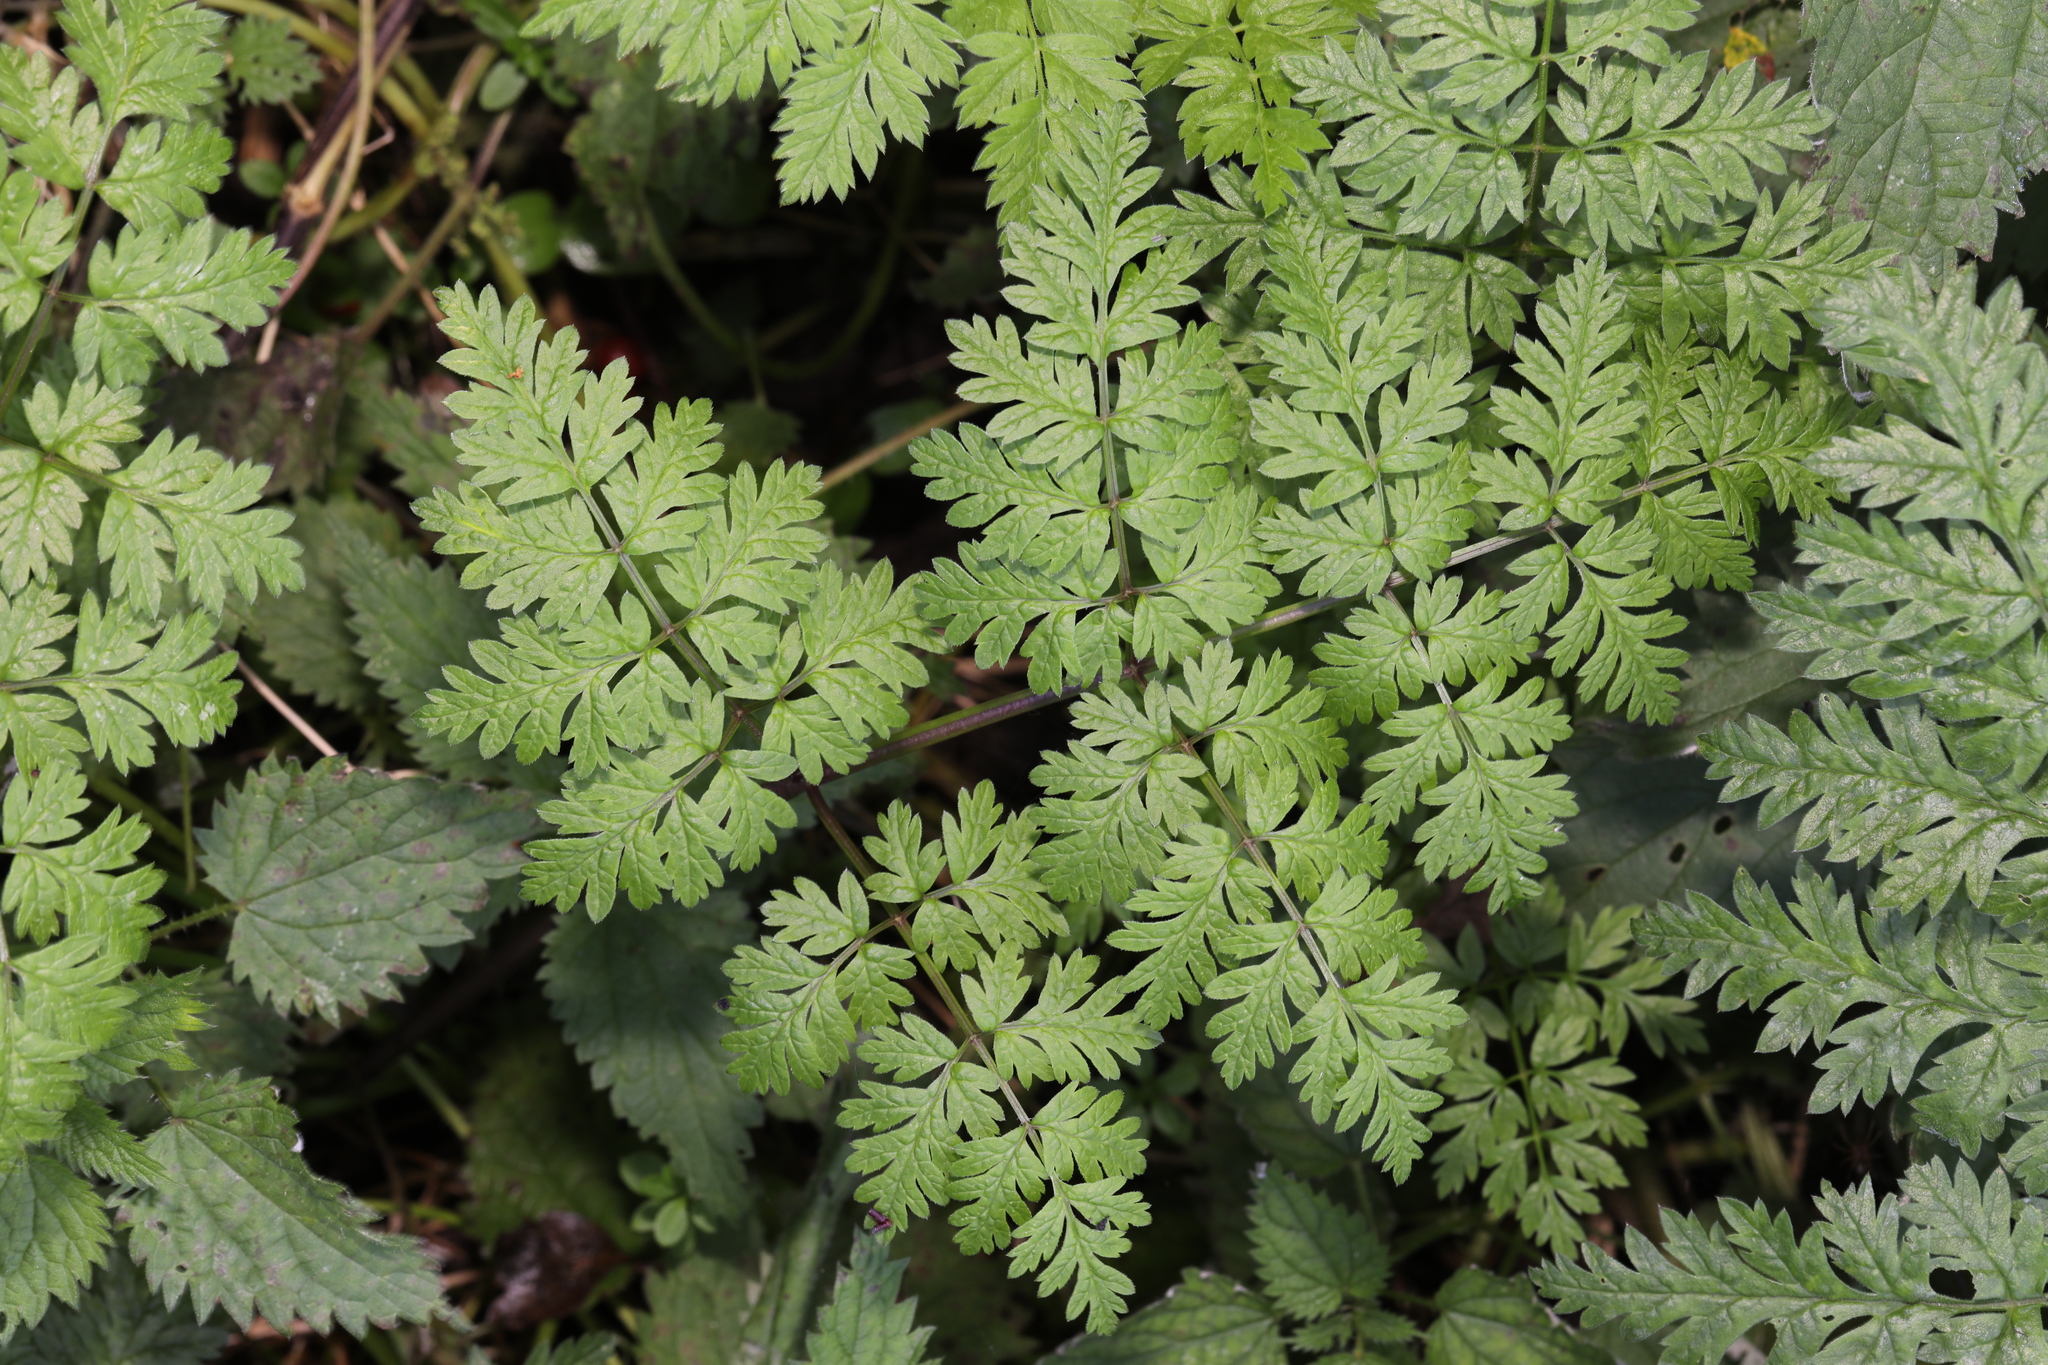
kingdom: Plantae
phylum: Tracheophyta
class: Magnoliopsida
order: Apiales
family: Apiaceae
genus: Anthriscus
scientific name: Anthriscus sylvestris
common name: Cow parsley
